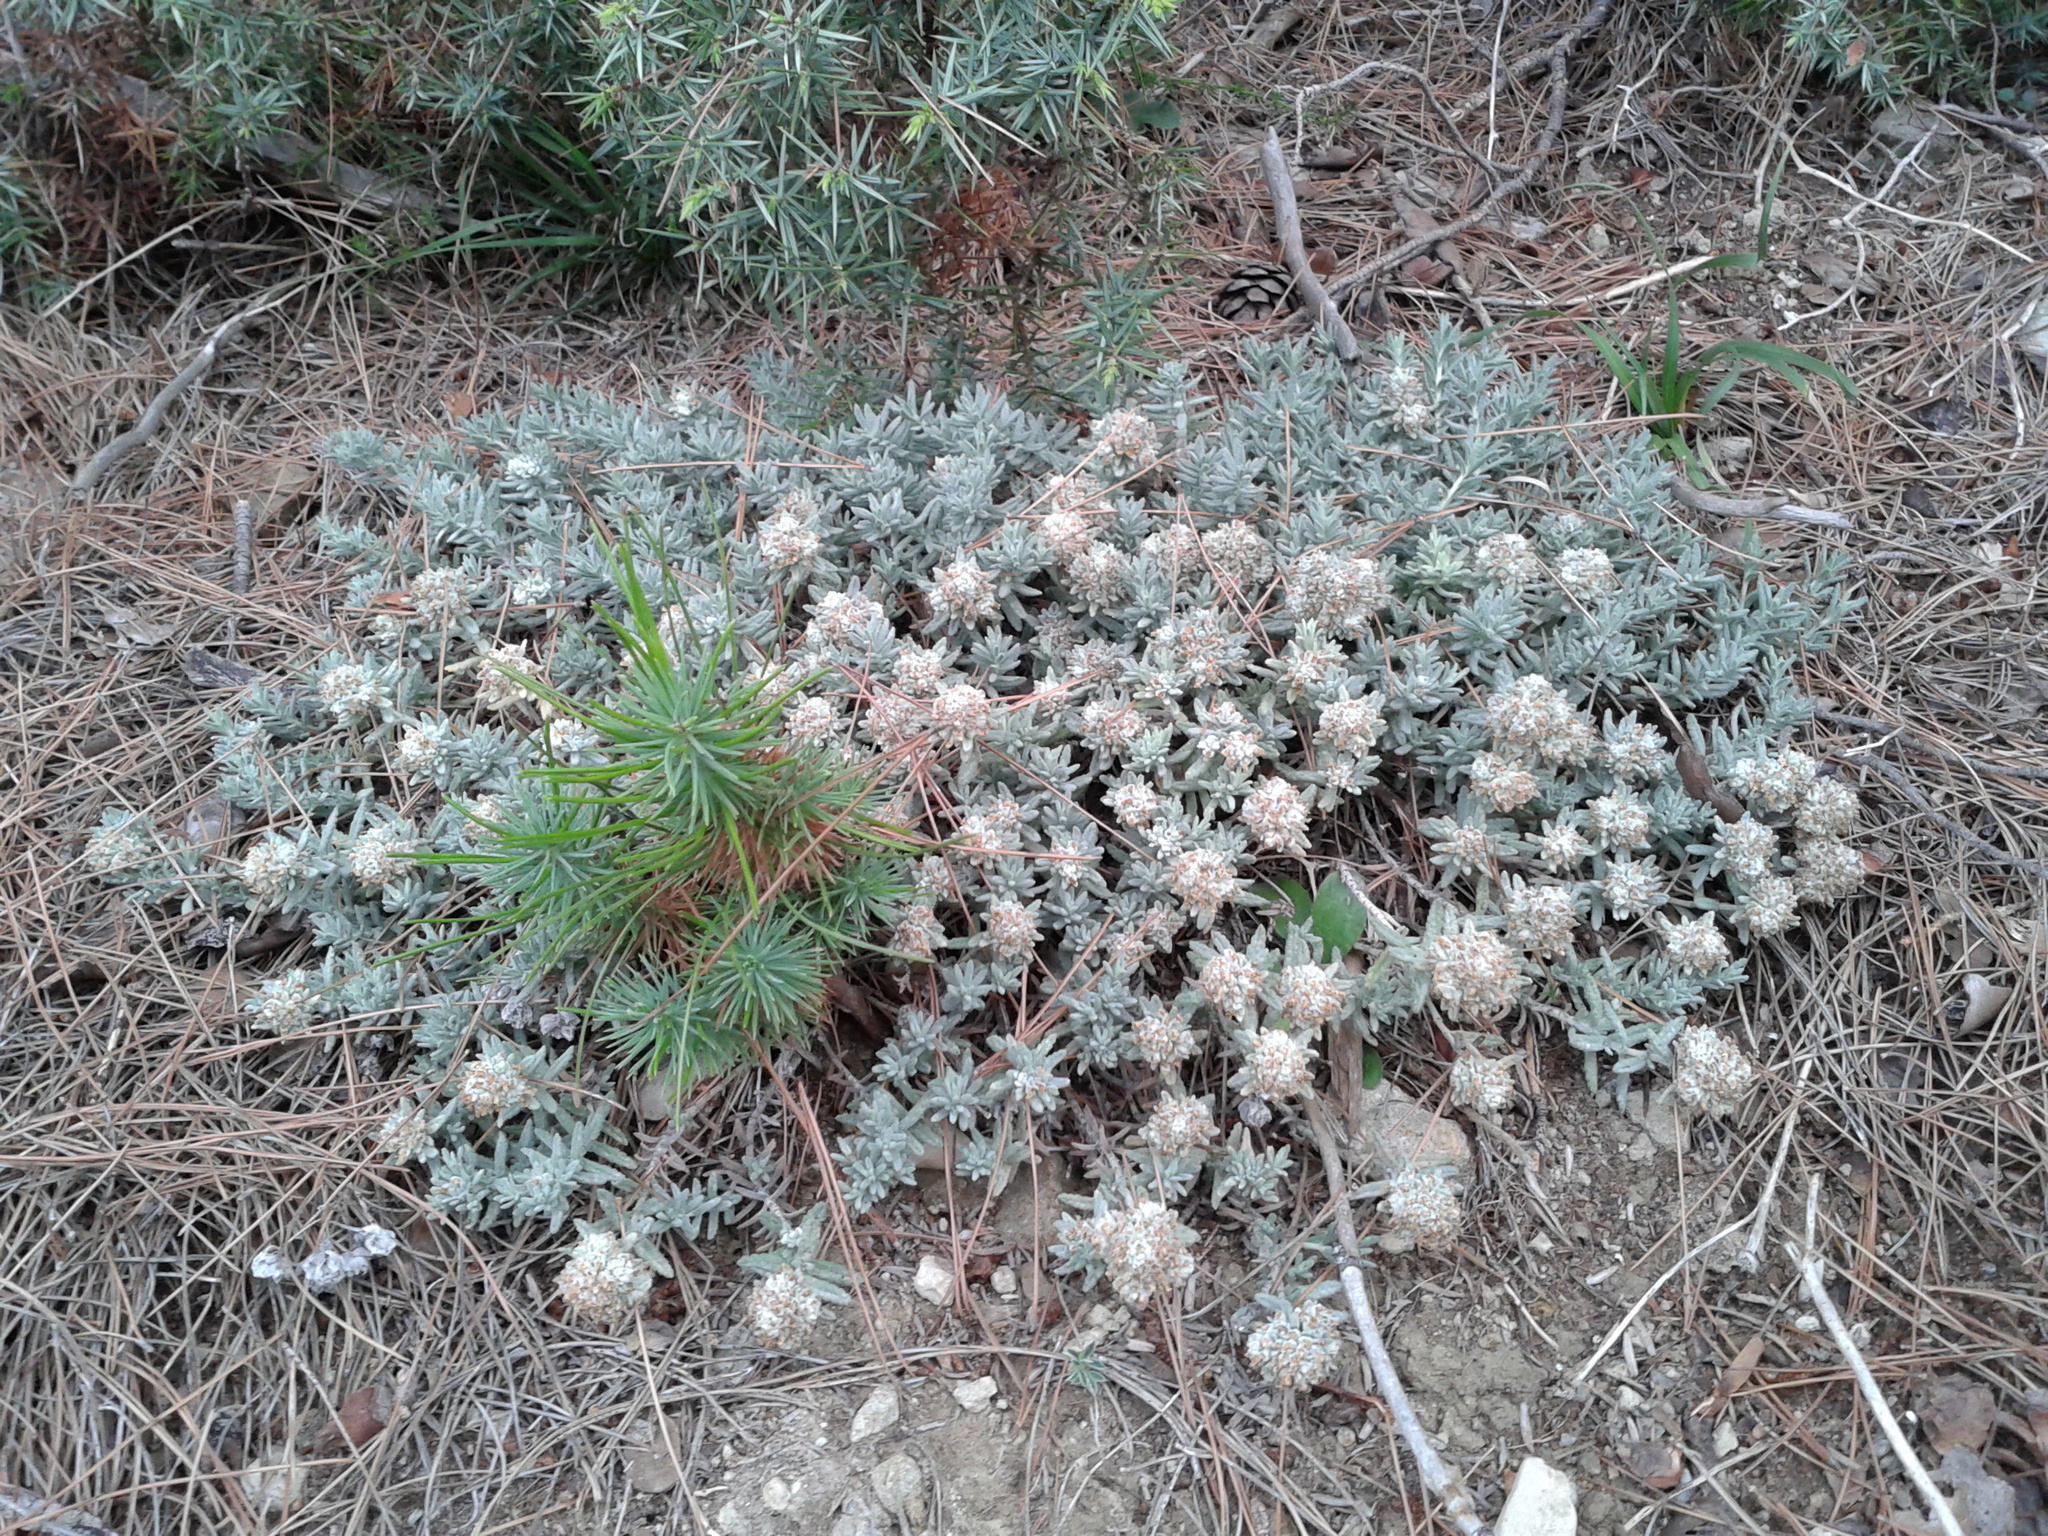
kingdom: Plantae
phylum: Tracheophyta
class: Magnoliopsida
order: Lamiales
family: Lamiaceae
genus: Teucrium
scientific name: Teucrium capitatum
